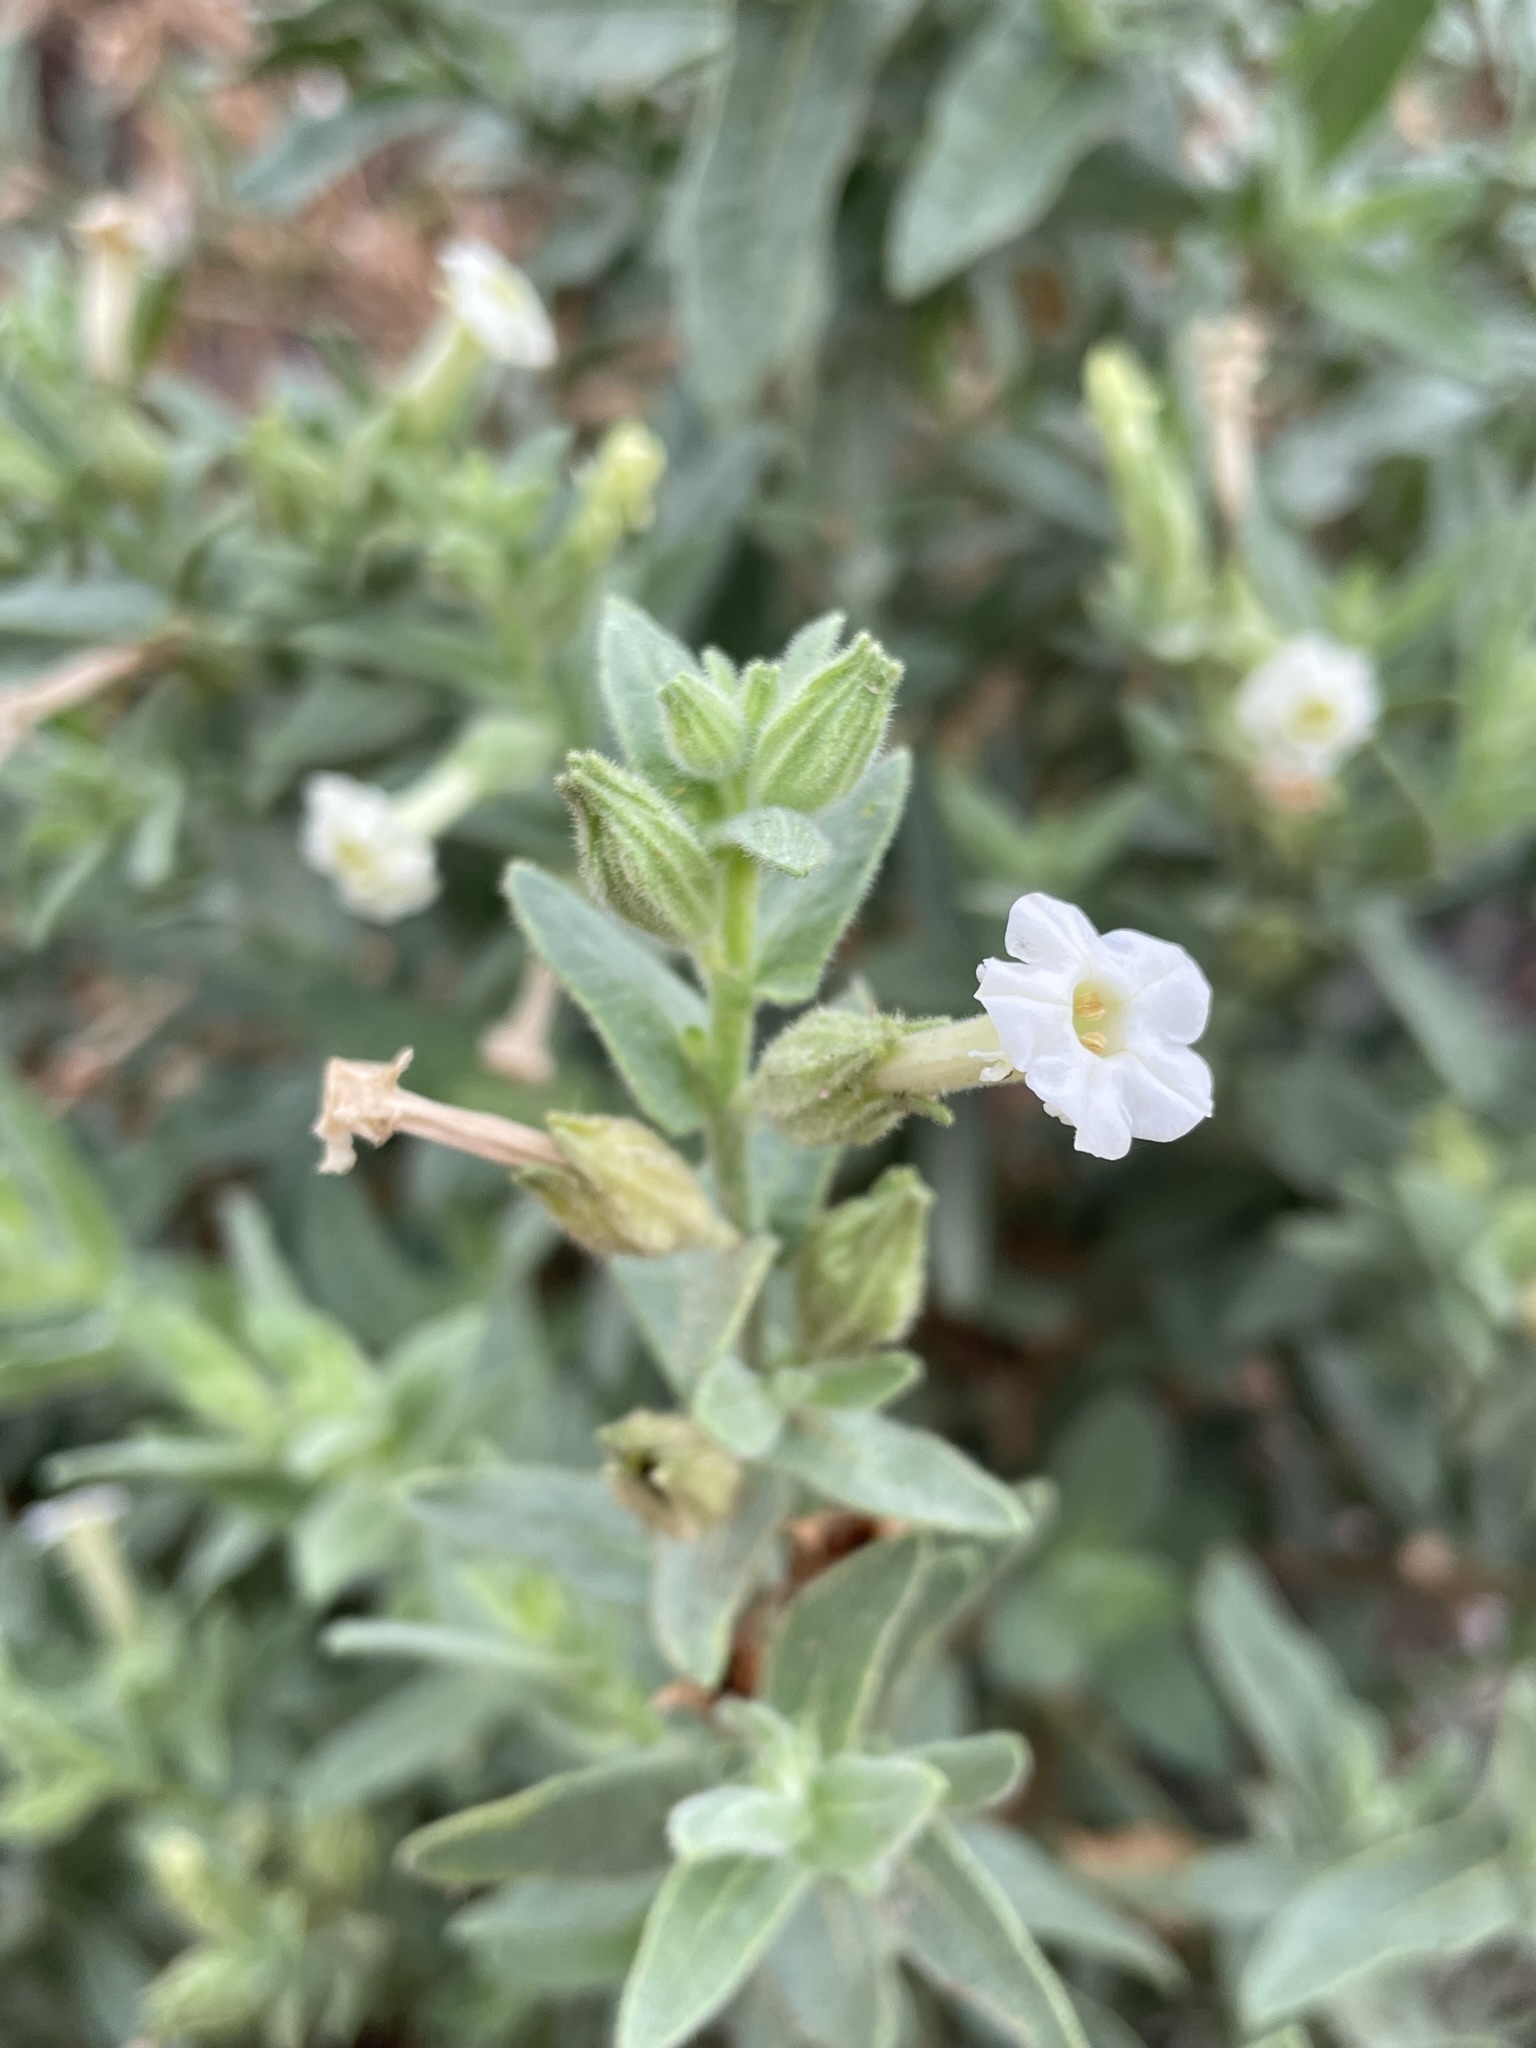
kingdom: Plantae
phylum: Tracheophyta
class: Magnoliopsida
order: Solanales
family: Solanaceae
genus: Nicotiana
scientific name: Nicotiana obtusifolia
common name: Desert tobacco
